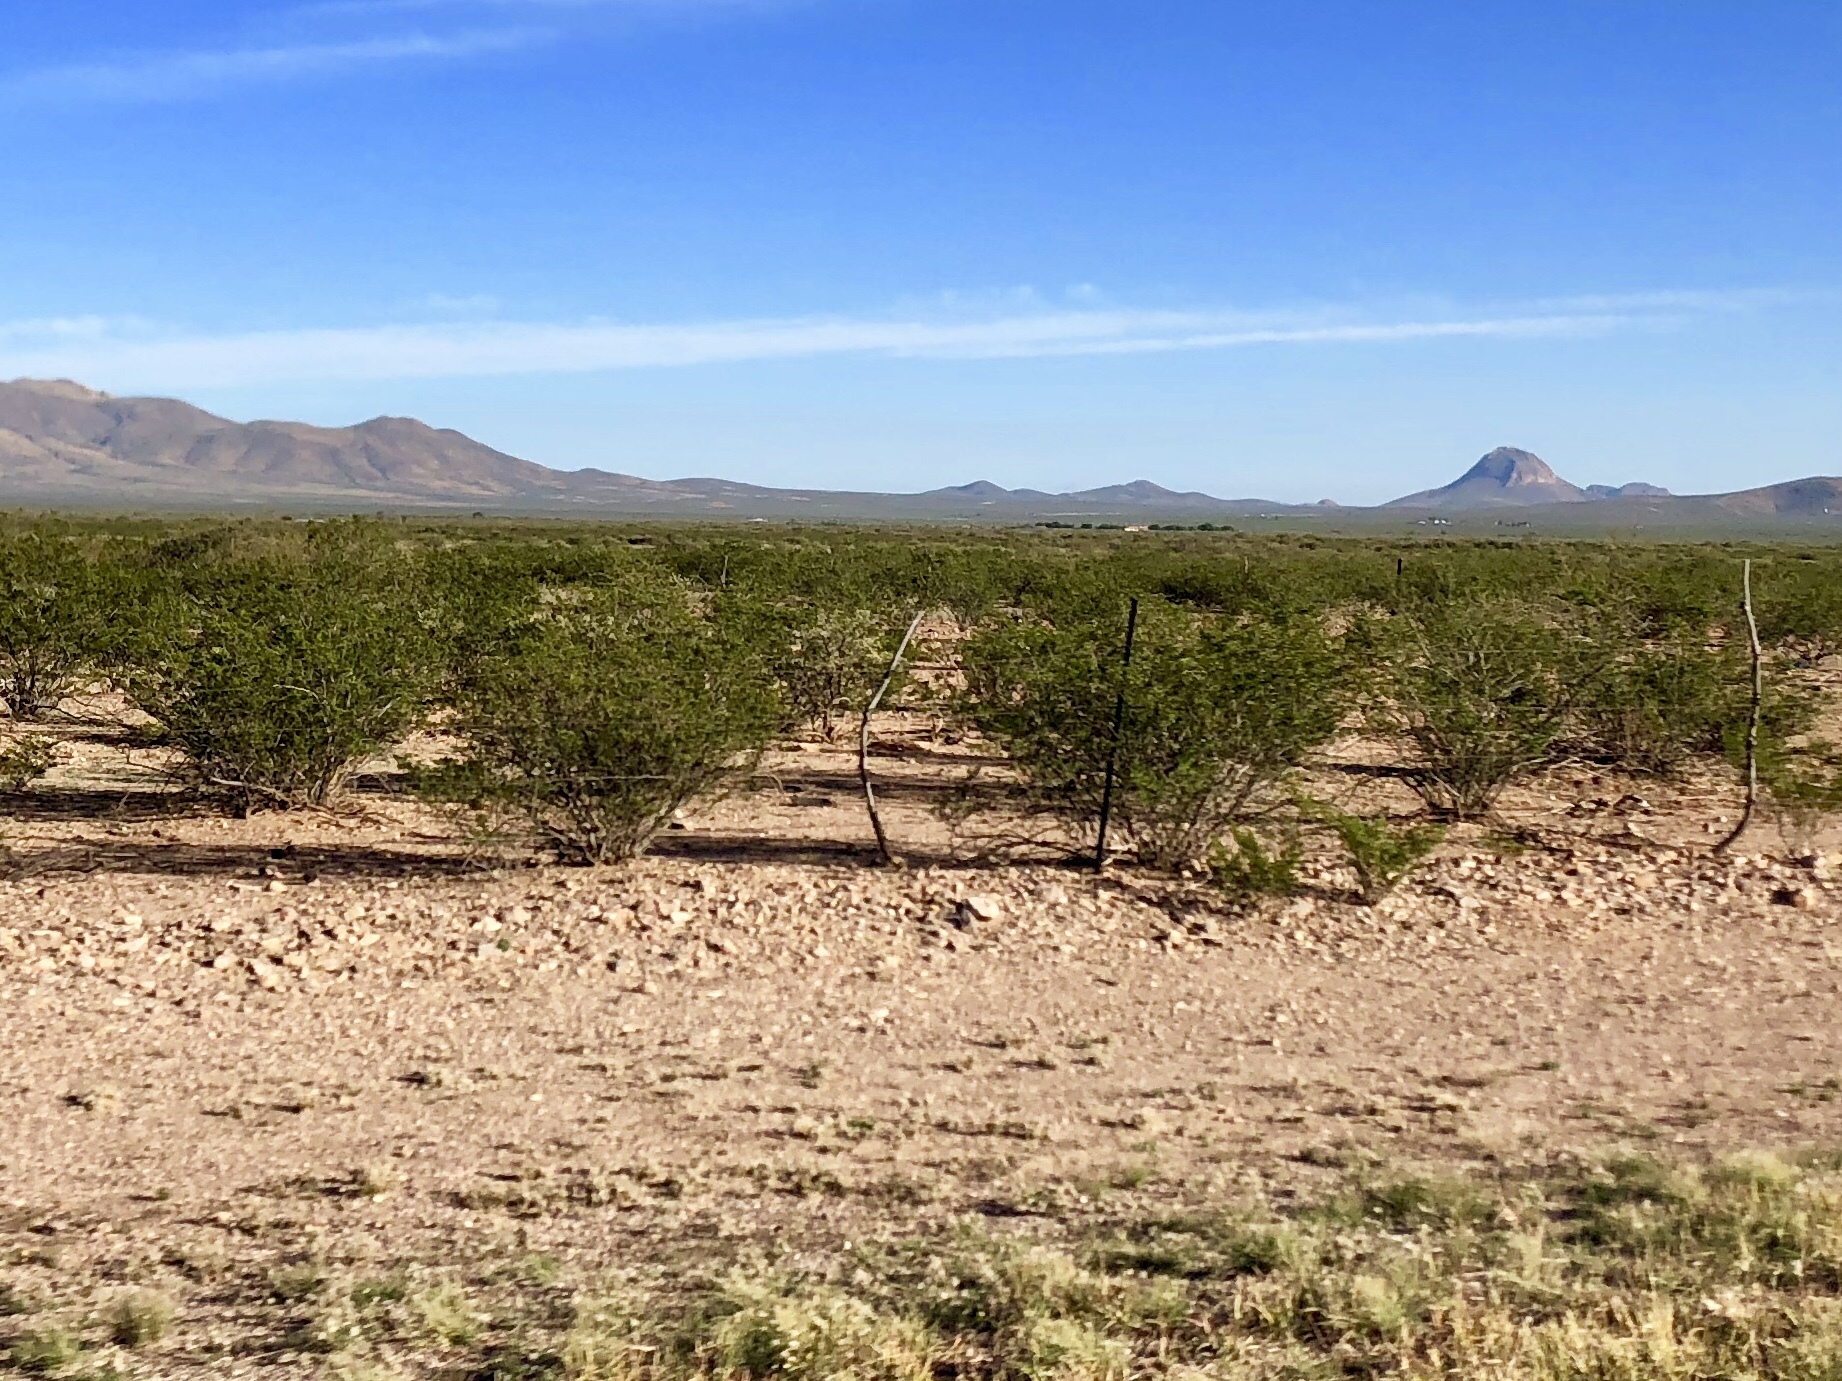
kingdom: Plantae
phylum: Tracheophyta
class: Magnoliopsida
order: Zygophyllales
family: Zygophyllaceae
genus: Larrea
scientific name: Larrea tridentata
